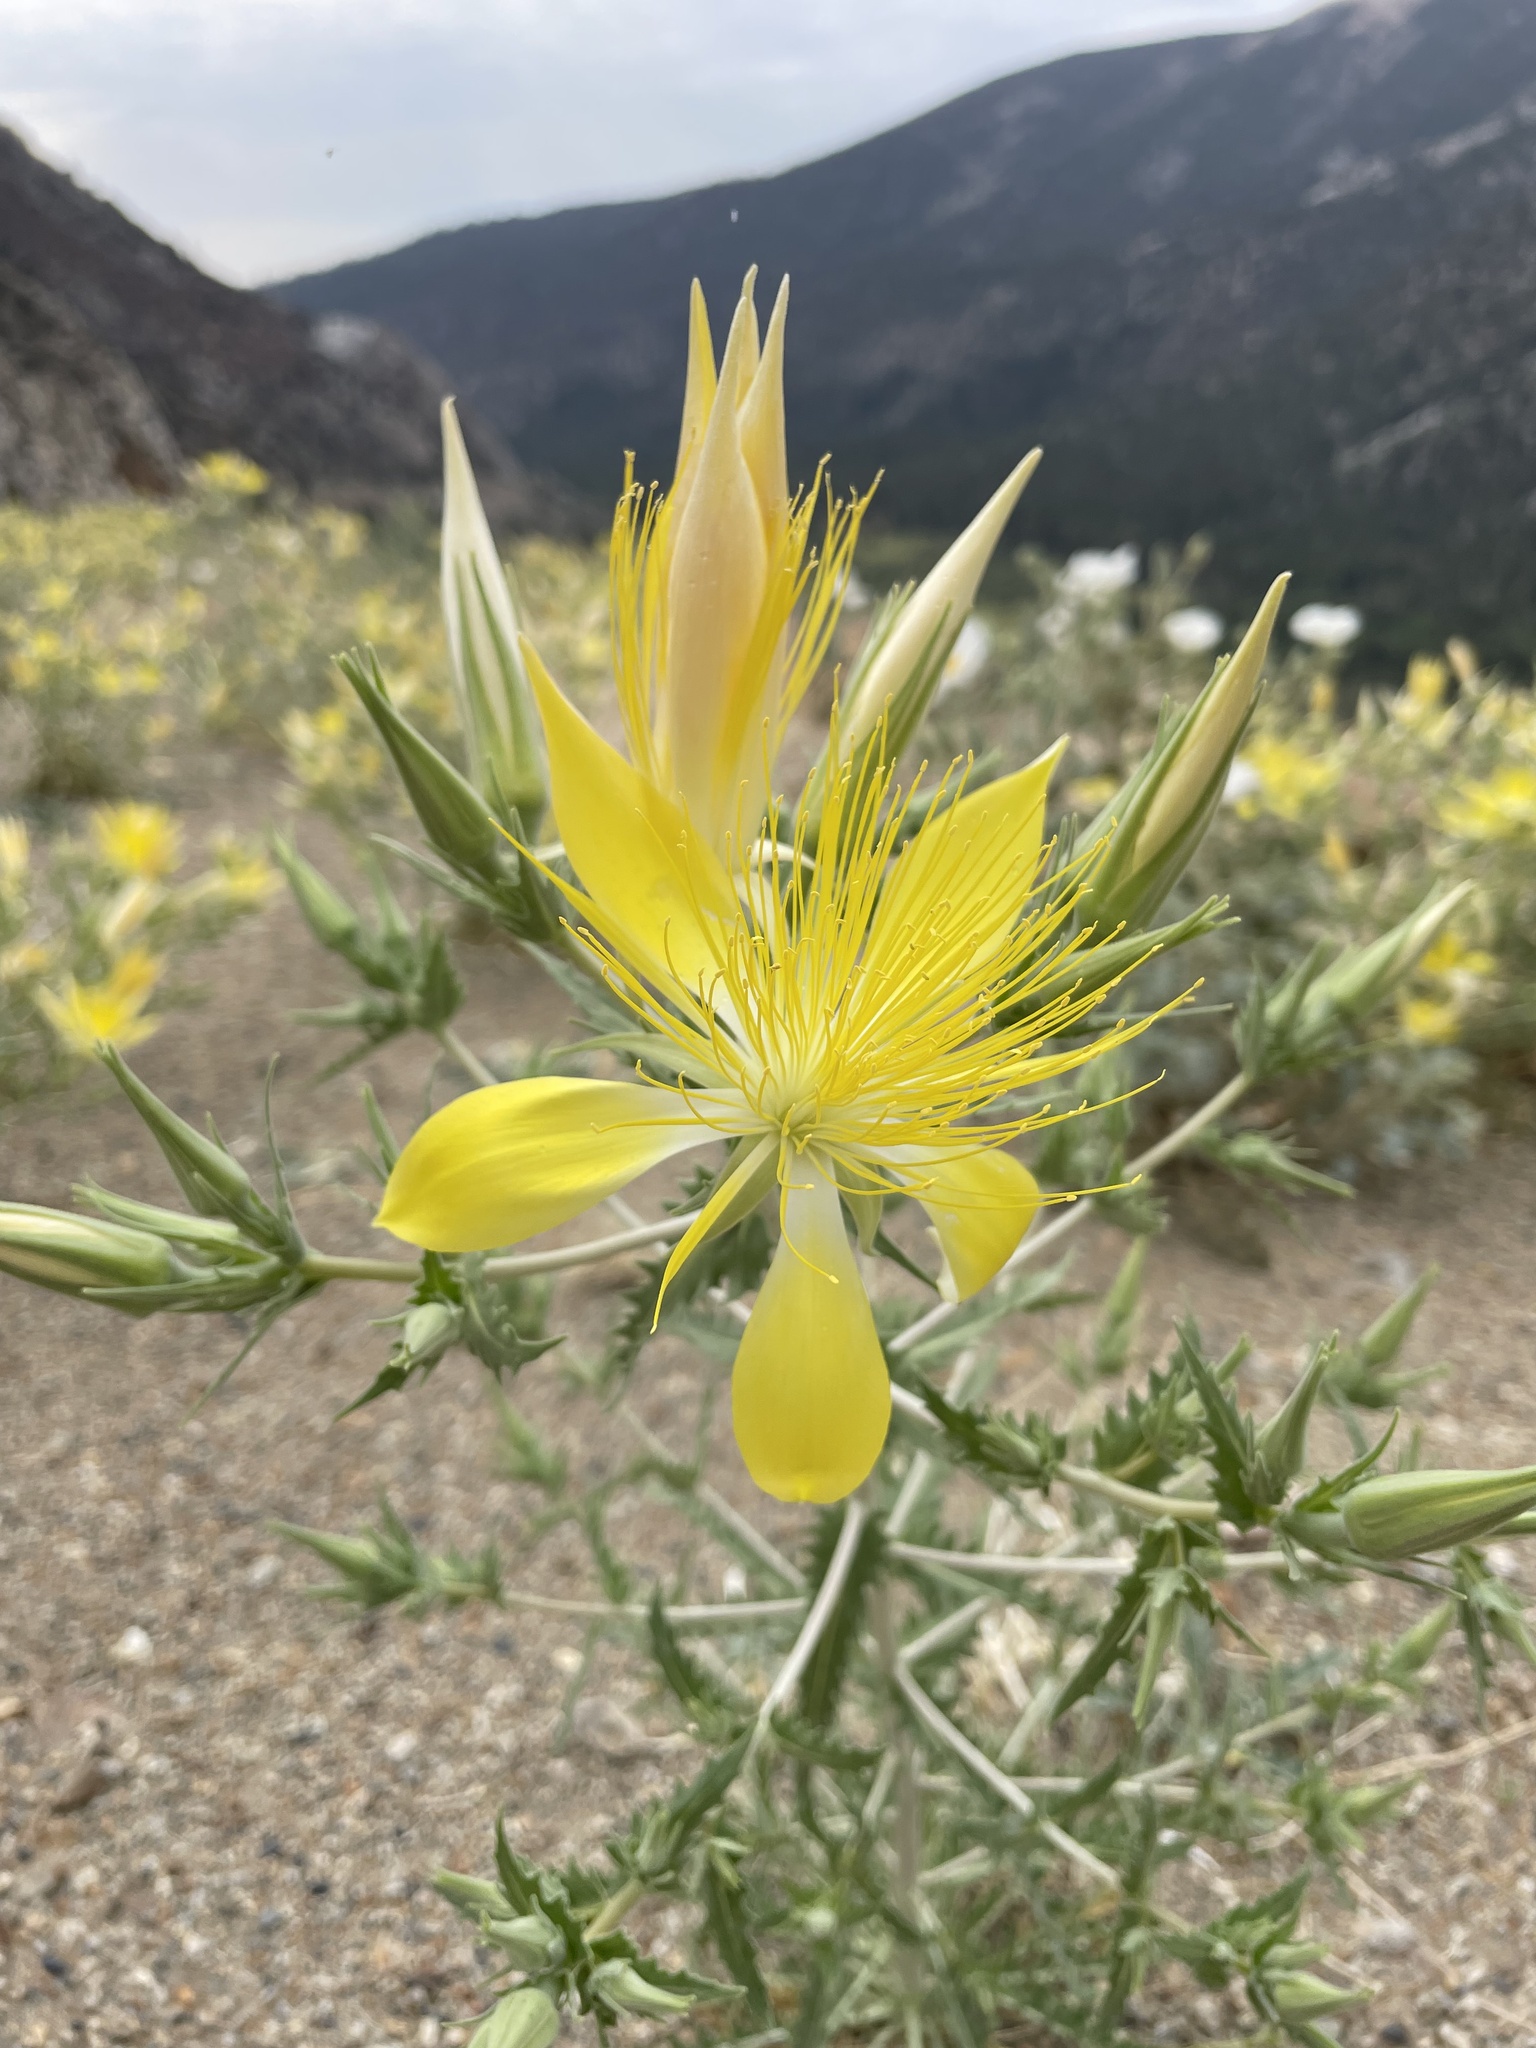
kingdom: Plantae
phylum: Tracheophyta
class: Magnoliopsida
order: Cornales
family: Loasaceae
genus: Mentzelia
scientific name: Mentzelia laevicaulis
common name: Smooth-stem blazingstar
